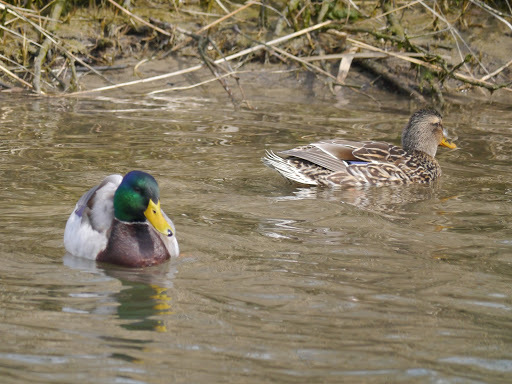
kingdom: Animalia
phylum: Chordata
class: Aves
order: Anseriformes
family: Anatidae
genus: Anas
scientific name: Anas platyrhynchos
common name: Mallard
